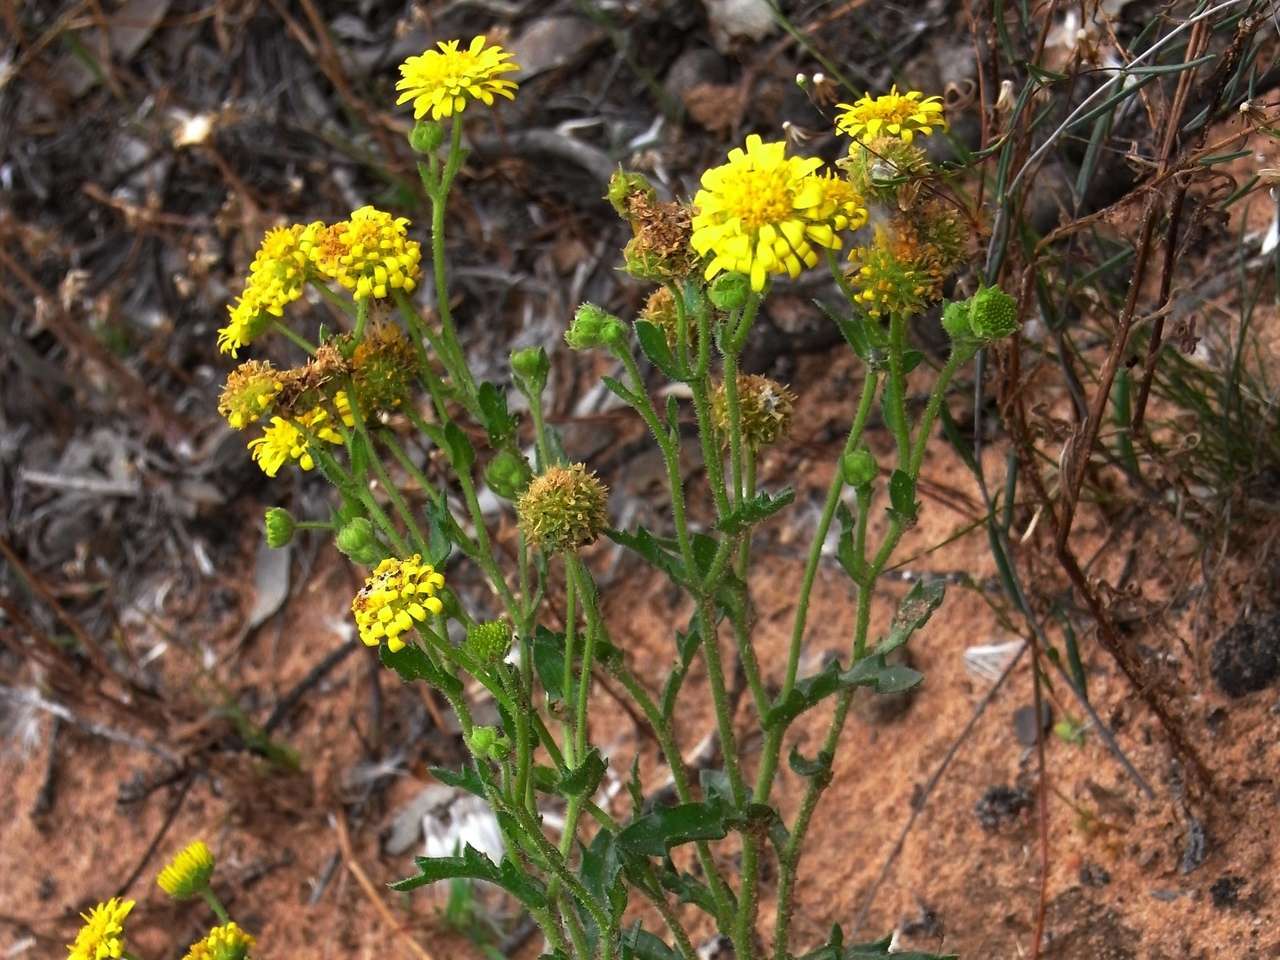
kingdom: Plantae
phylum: Tracheophyta
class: Magnoliopsida
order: Asterales
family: Asteraceae
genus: Calotis
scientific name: Calotis cymbacantha
